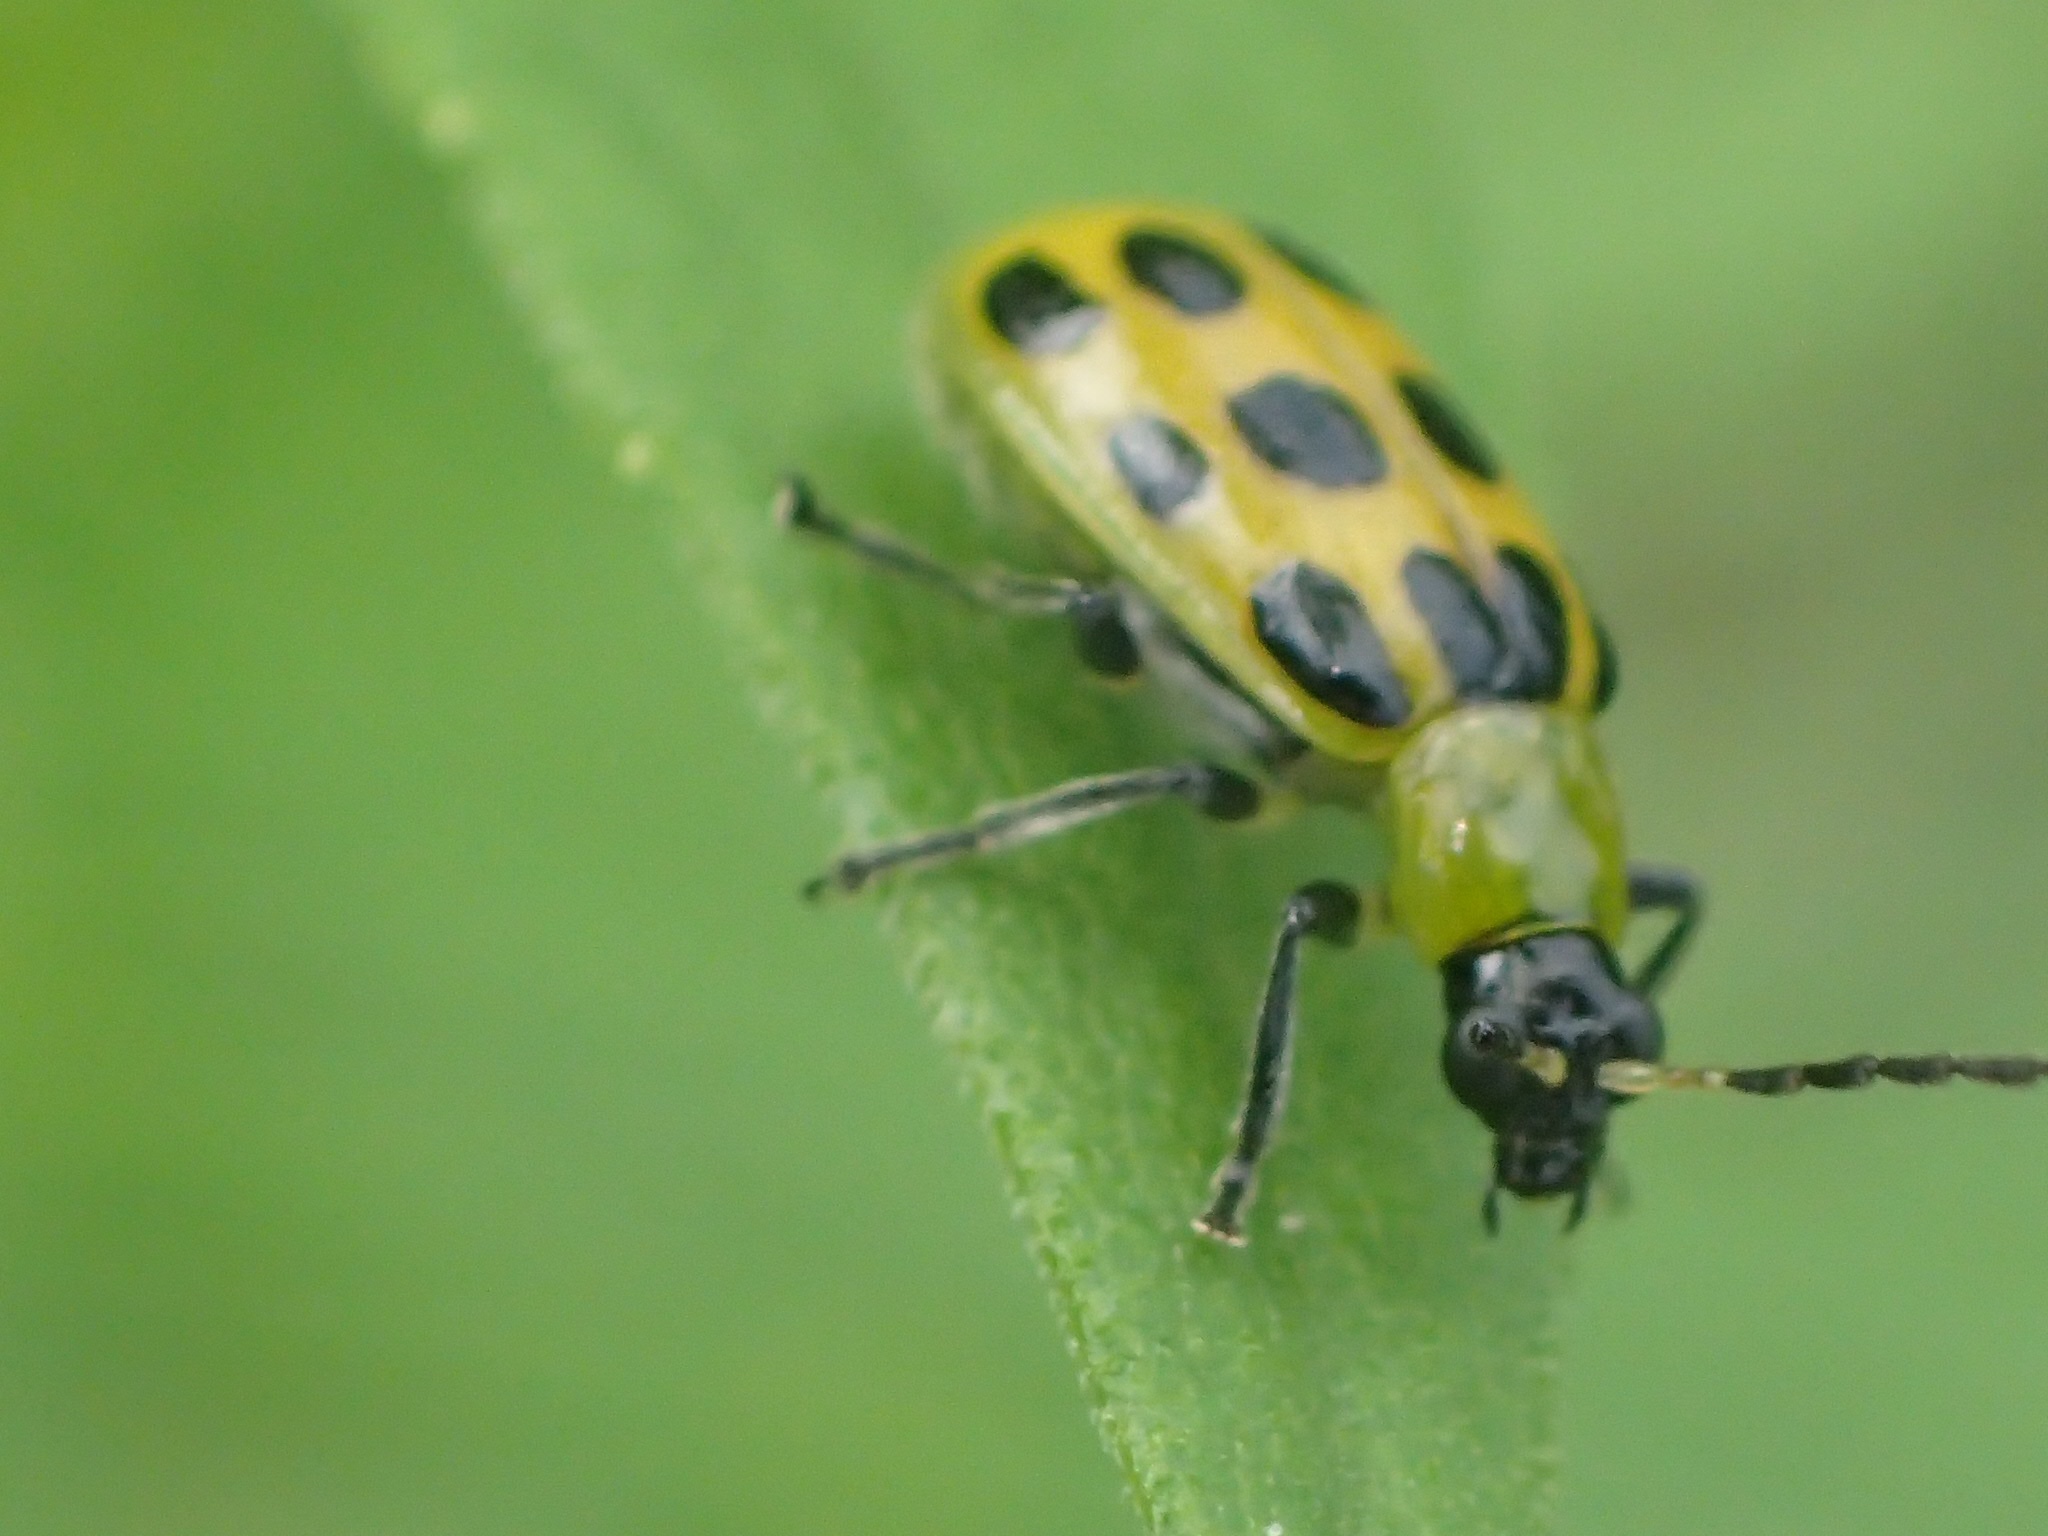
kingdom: Animalia
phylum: Arthropoda
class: Insecta
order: Coleoptera
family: Chrysomelidae
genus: Diabrotica
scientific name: Diabrotica undecimpunctata
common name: Spotted cucumber beetle
